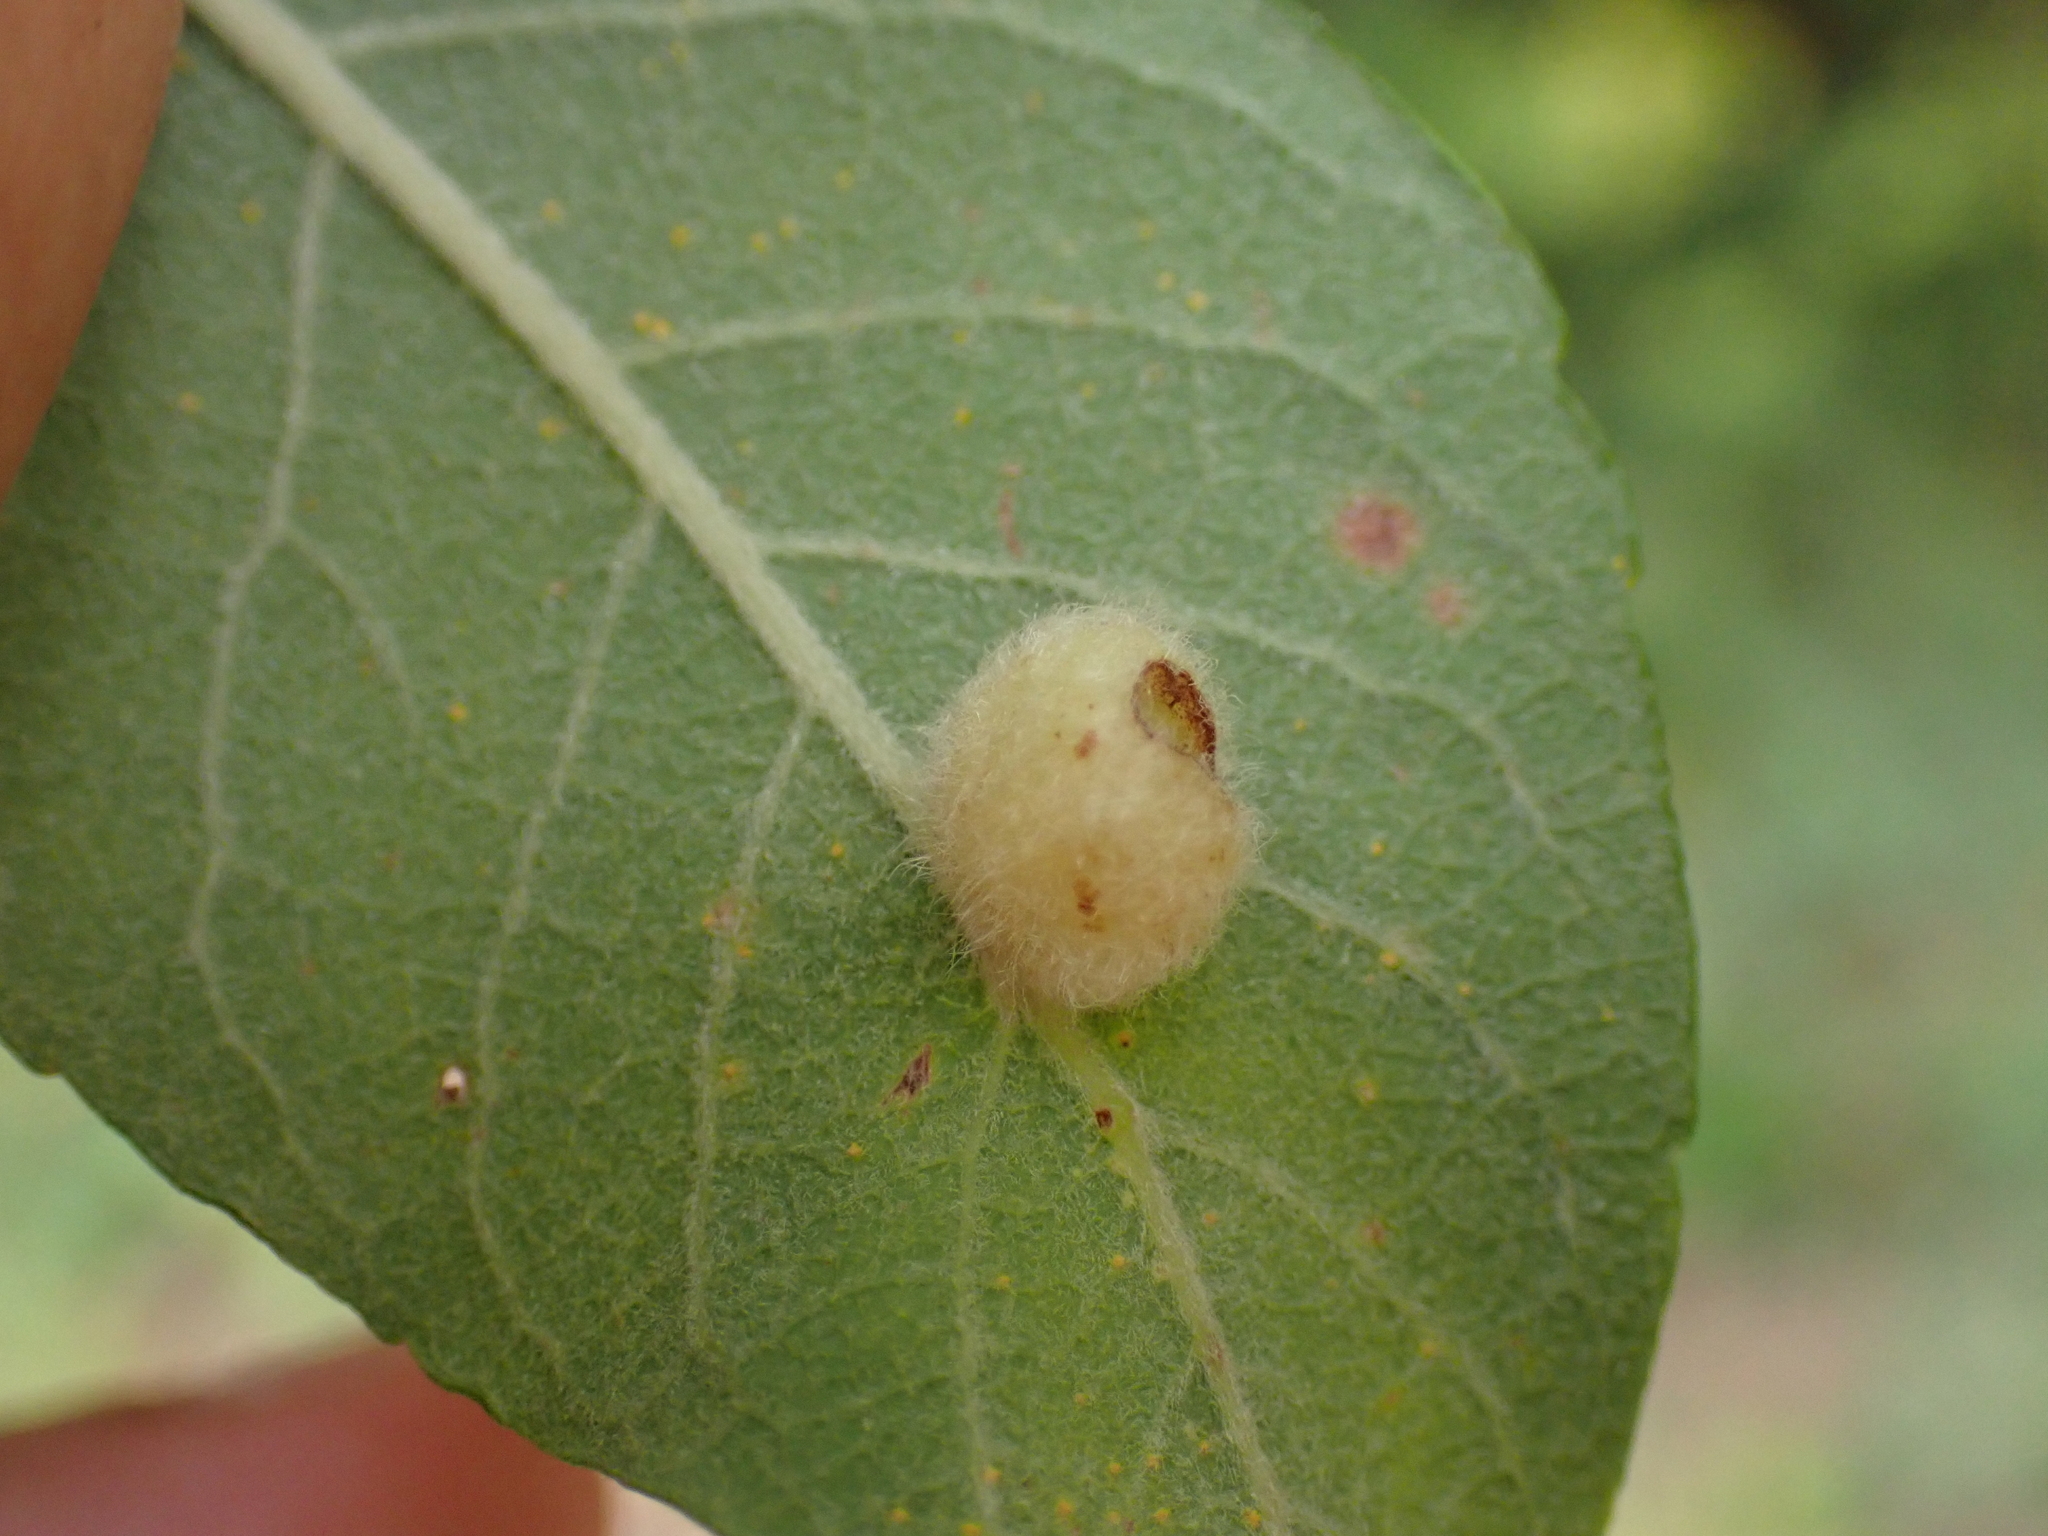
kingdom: Animalia
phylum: Arthropoda
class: Insecta
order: Hymenoptera
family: Tenthredinidae
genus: Pontania
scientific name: Pontania pedunculi
